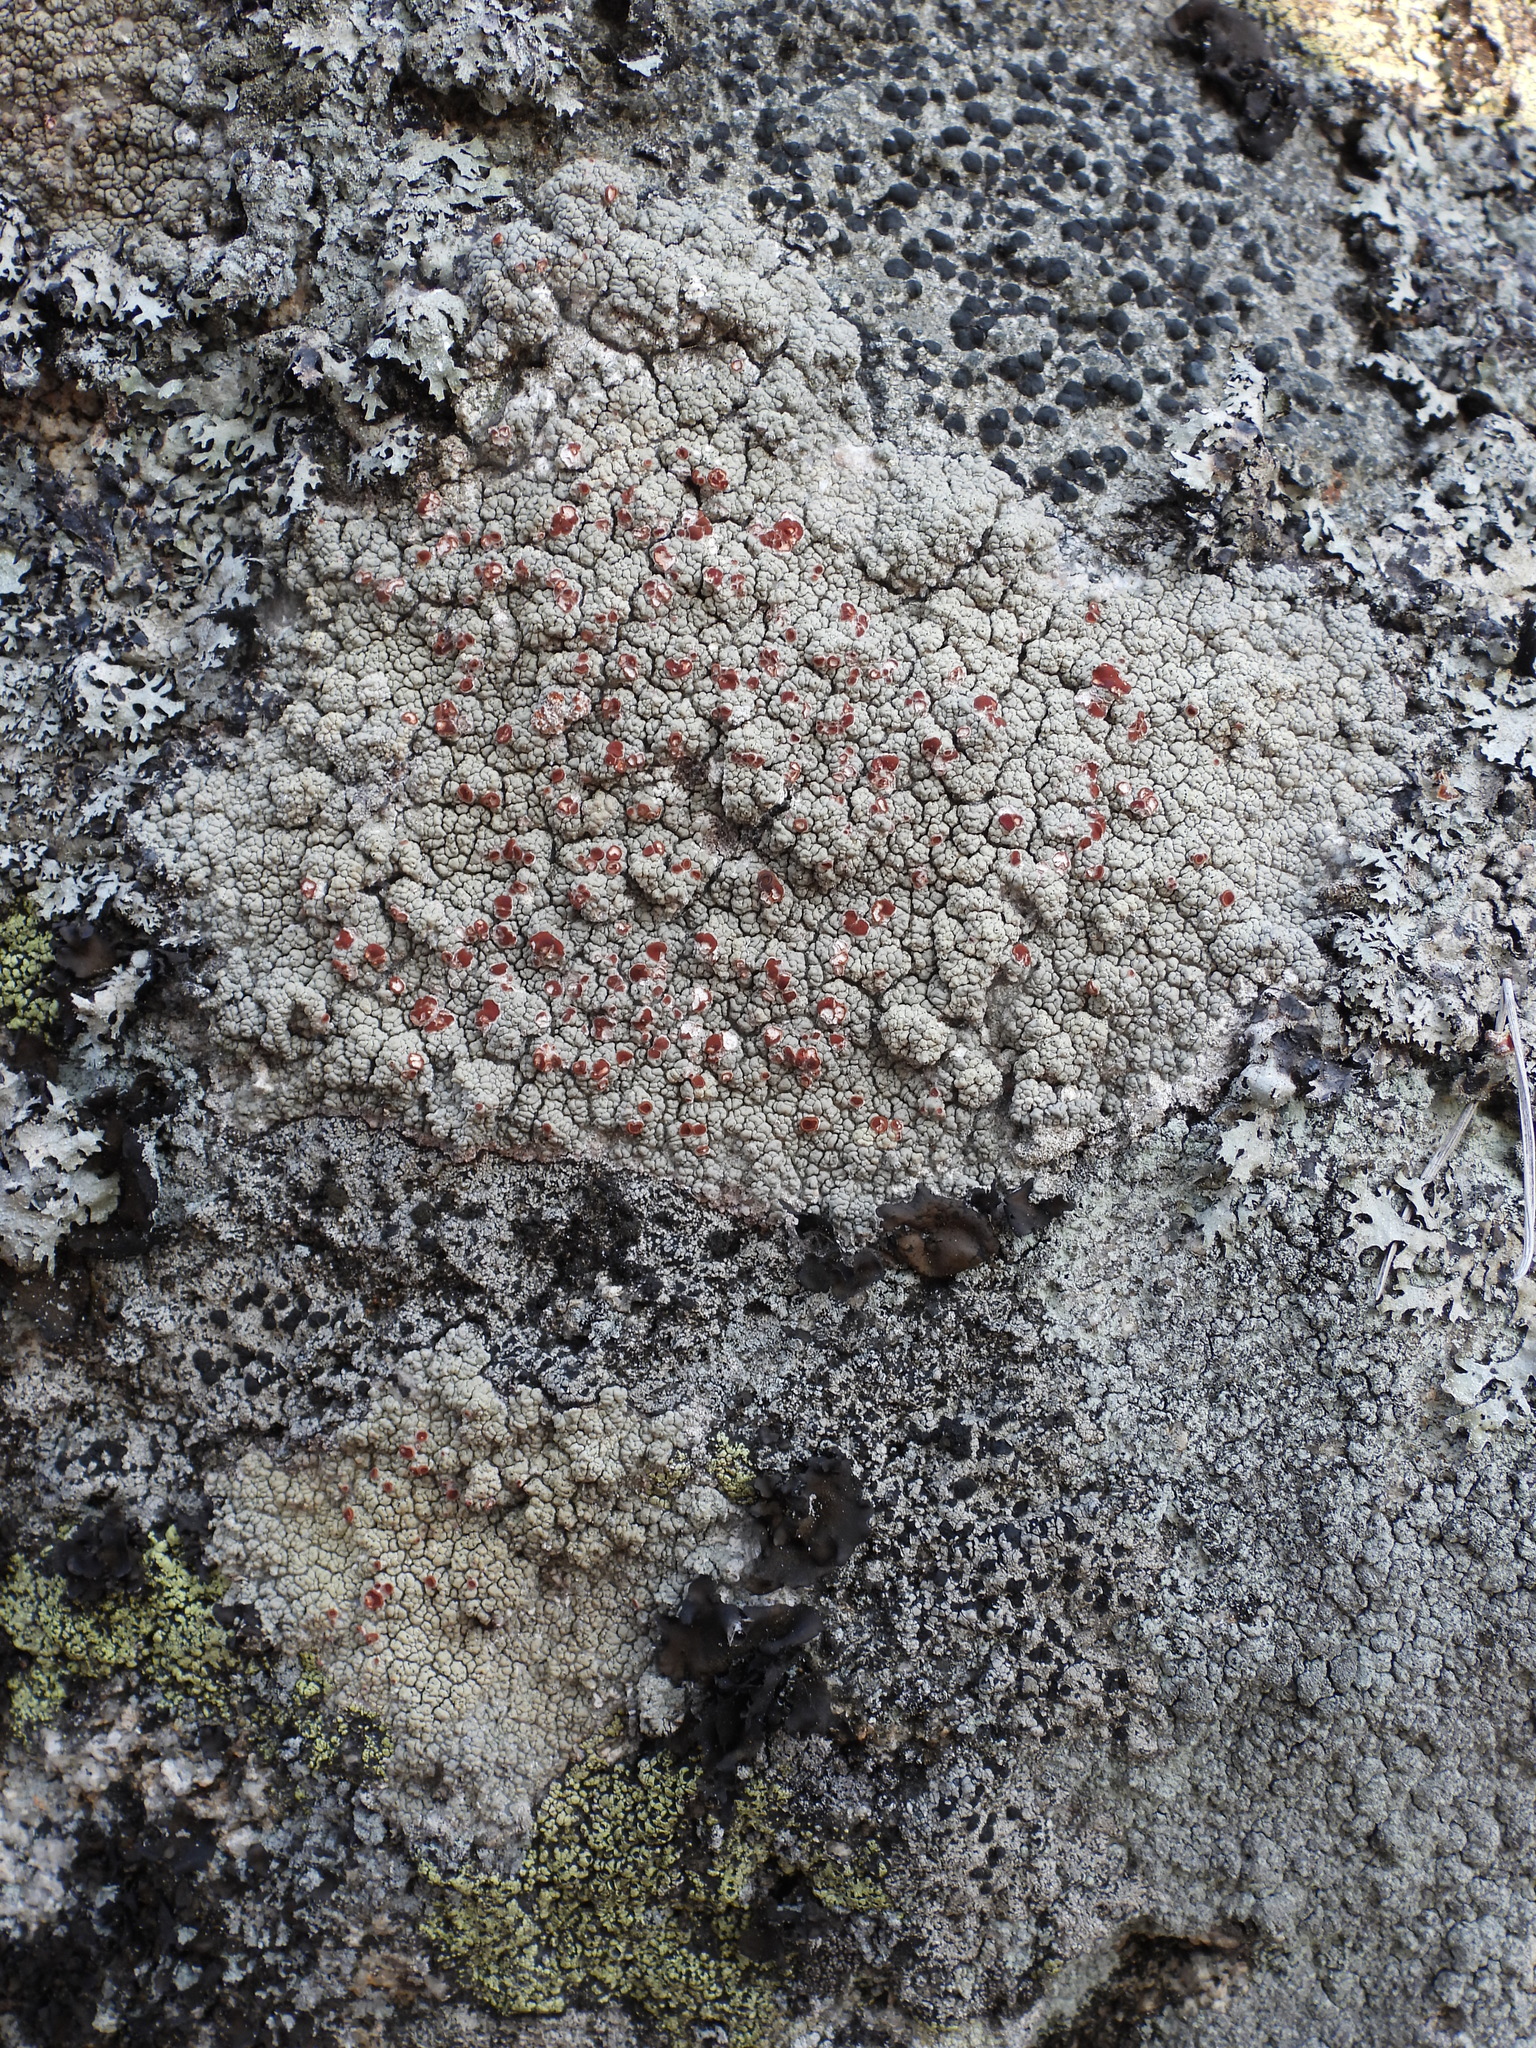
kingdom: Fungi
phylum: Ascomycota
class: Lecanoromycetes
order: Umbilicariales
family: Ophioparmaceae
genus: Ophioparma
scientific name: Ophioparma ventosa
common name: Blood-spot
